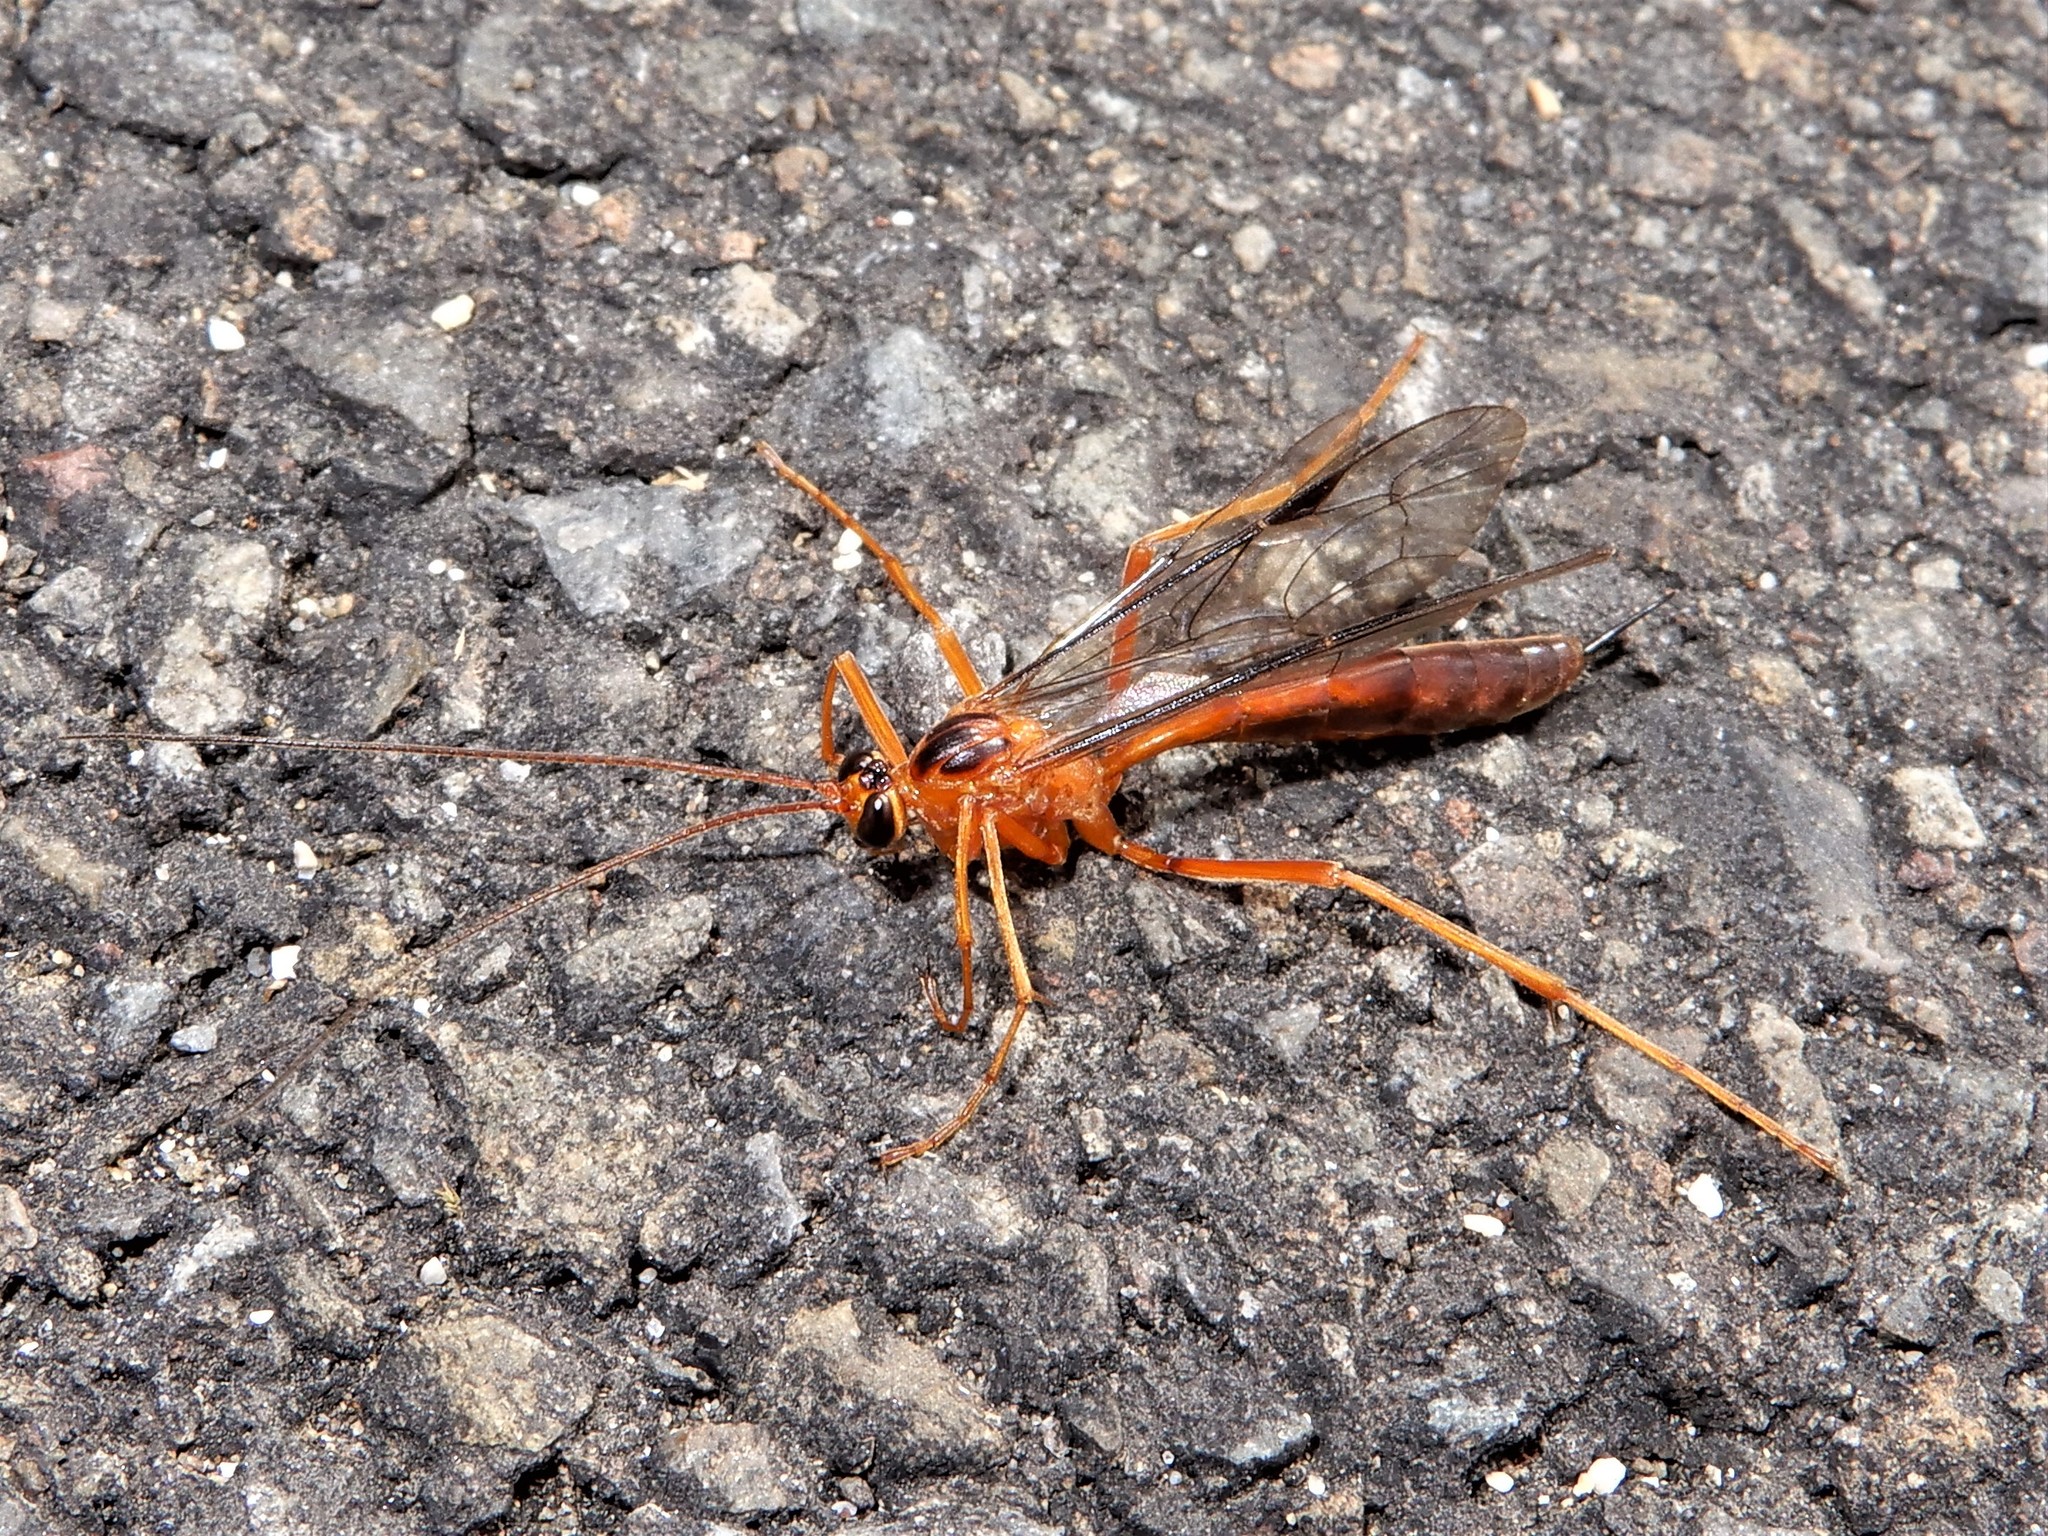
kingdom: Animalia
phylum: Arthropoda
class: Insecta
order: Hymenoptera
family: Ichneumonidae
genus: Netelia
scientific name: Netelia ephippiata
